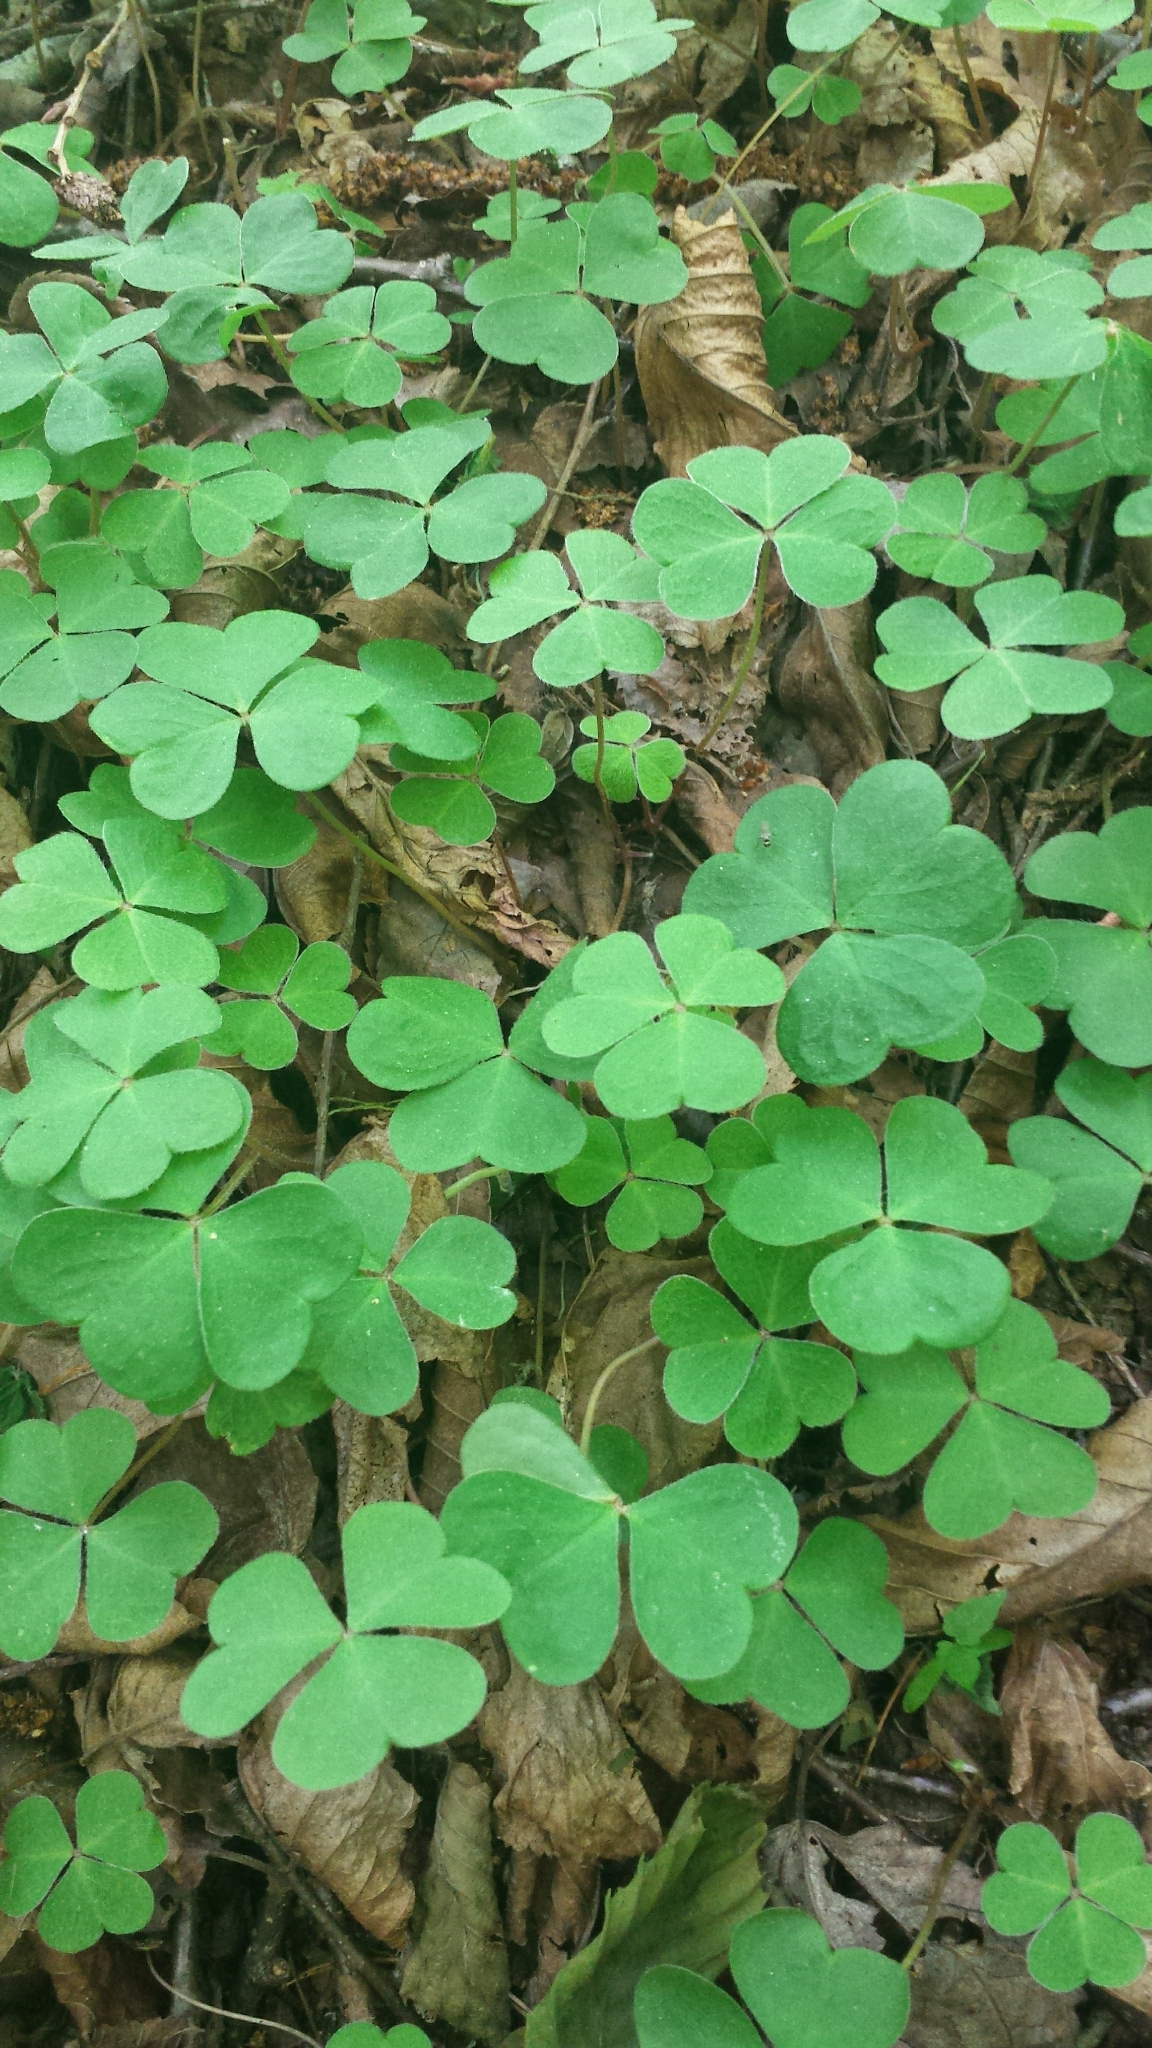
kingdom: Plantae
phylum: Tracheophyta
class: Magnoliopsida
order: Oxalidales
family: Oxalidaceae
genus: Oxalis
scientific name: Oxalis montana
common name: American wood-sorrel
